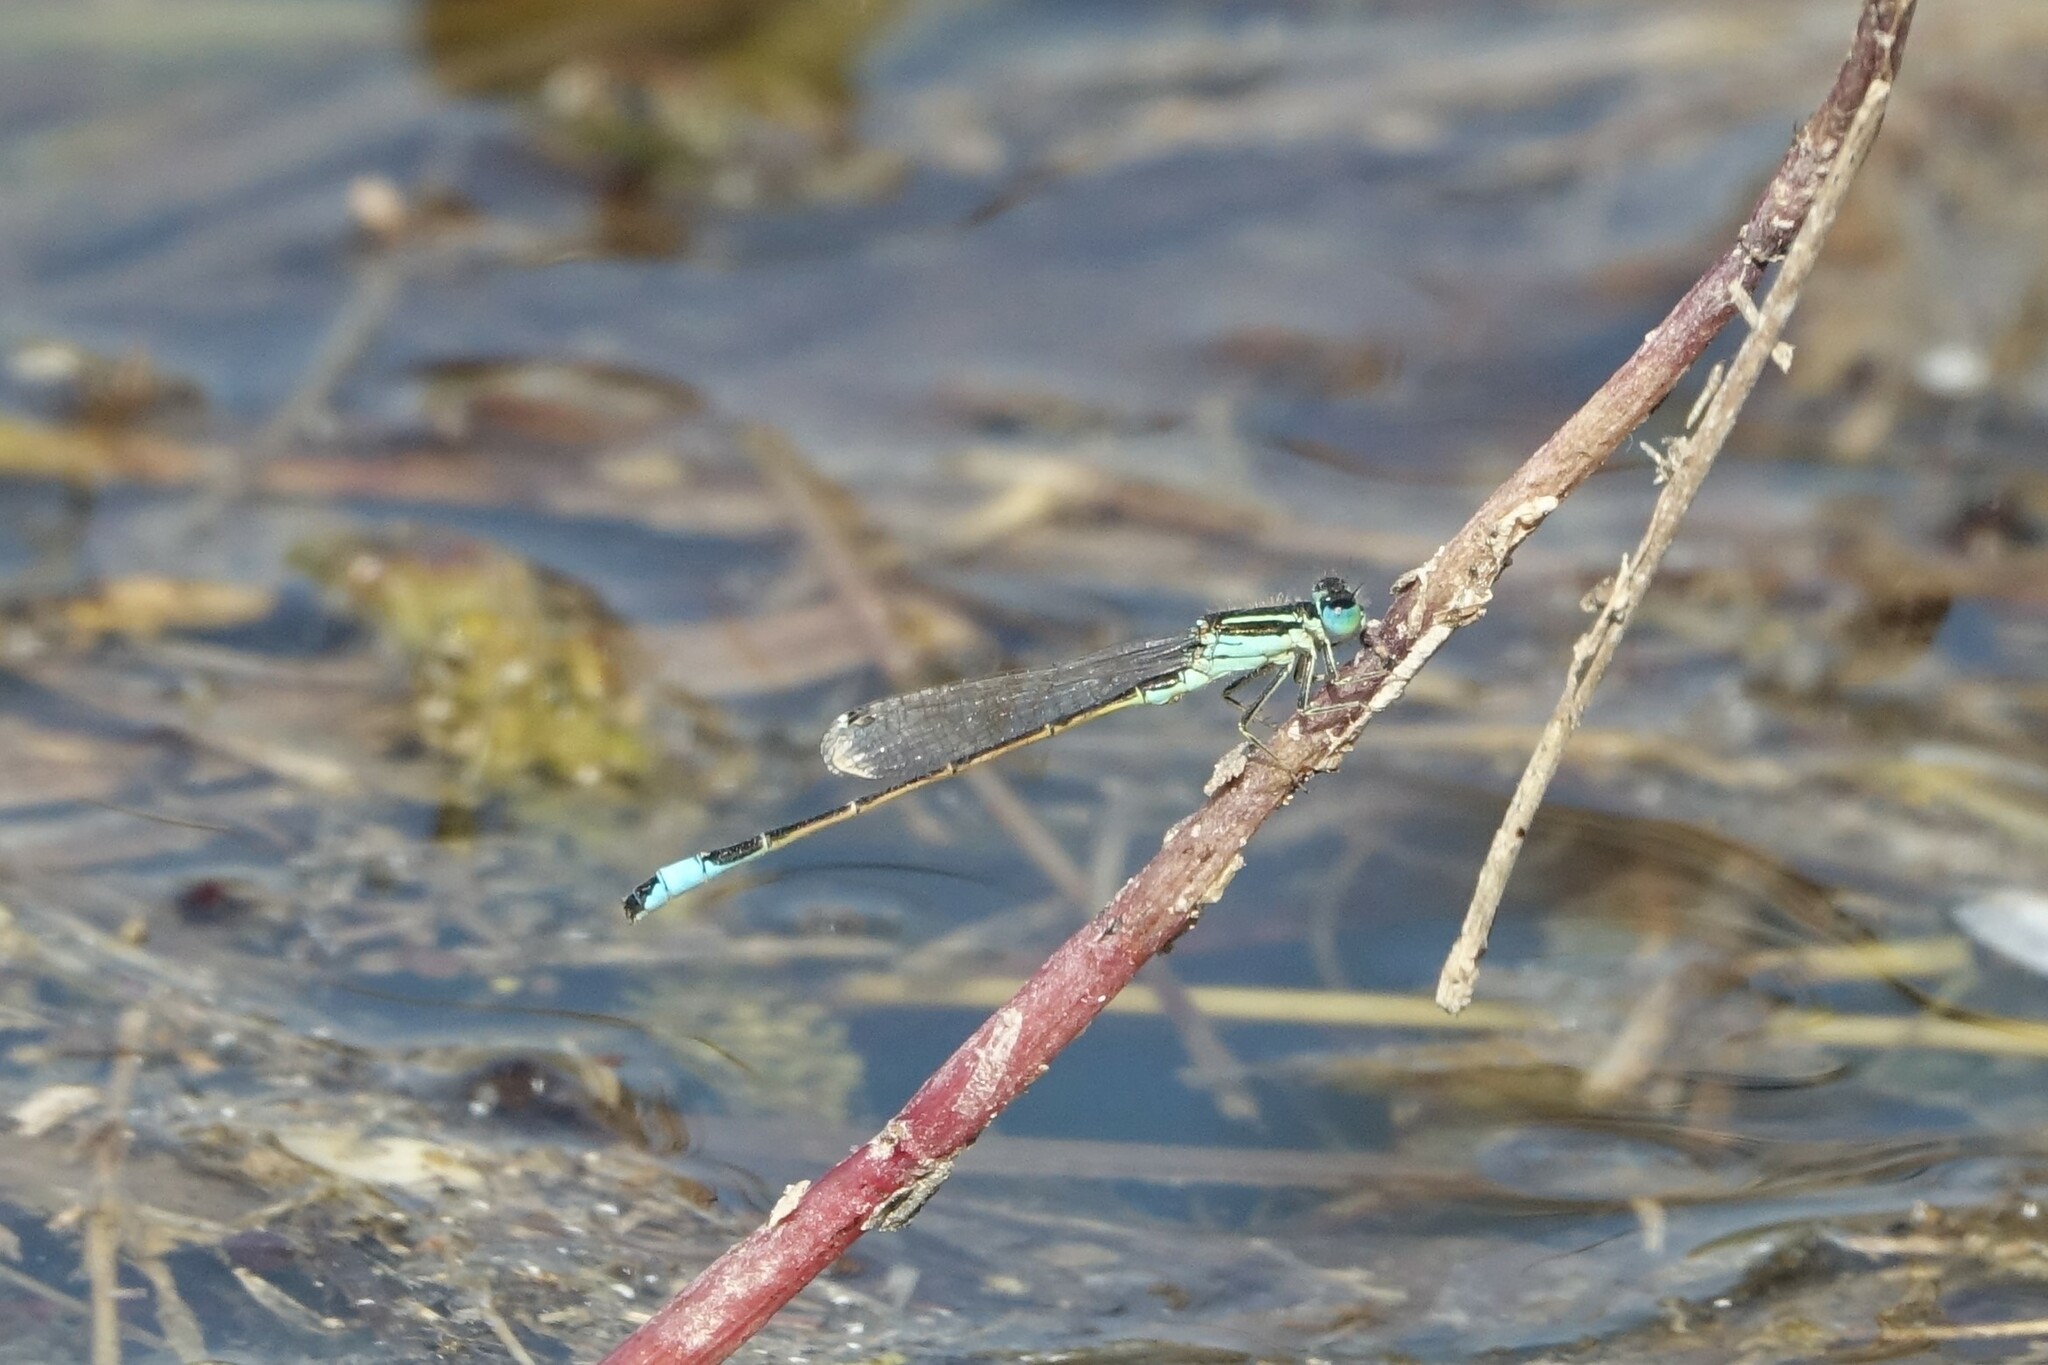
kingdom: Animalia
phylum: Arthropoda
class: Insecta
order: Odonata
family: Coenagrionidae
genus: Ischnura
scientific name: Ischnura graellsii
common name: Iberian bluetail
